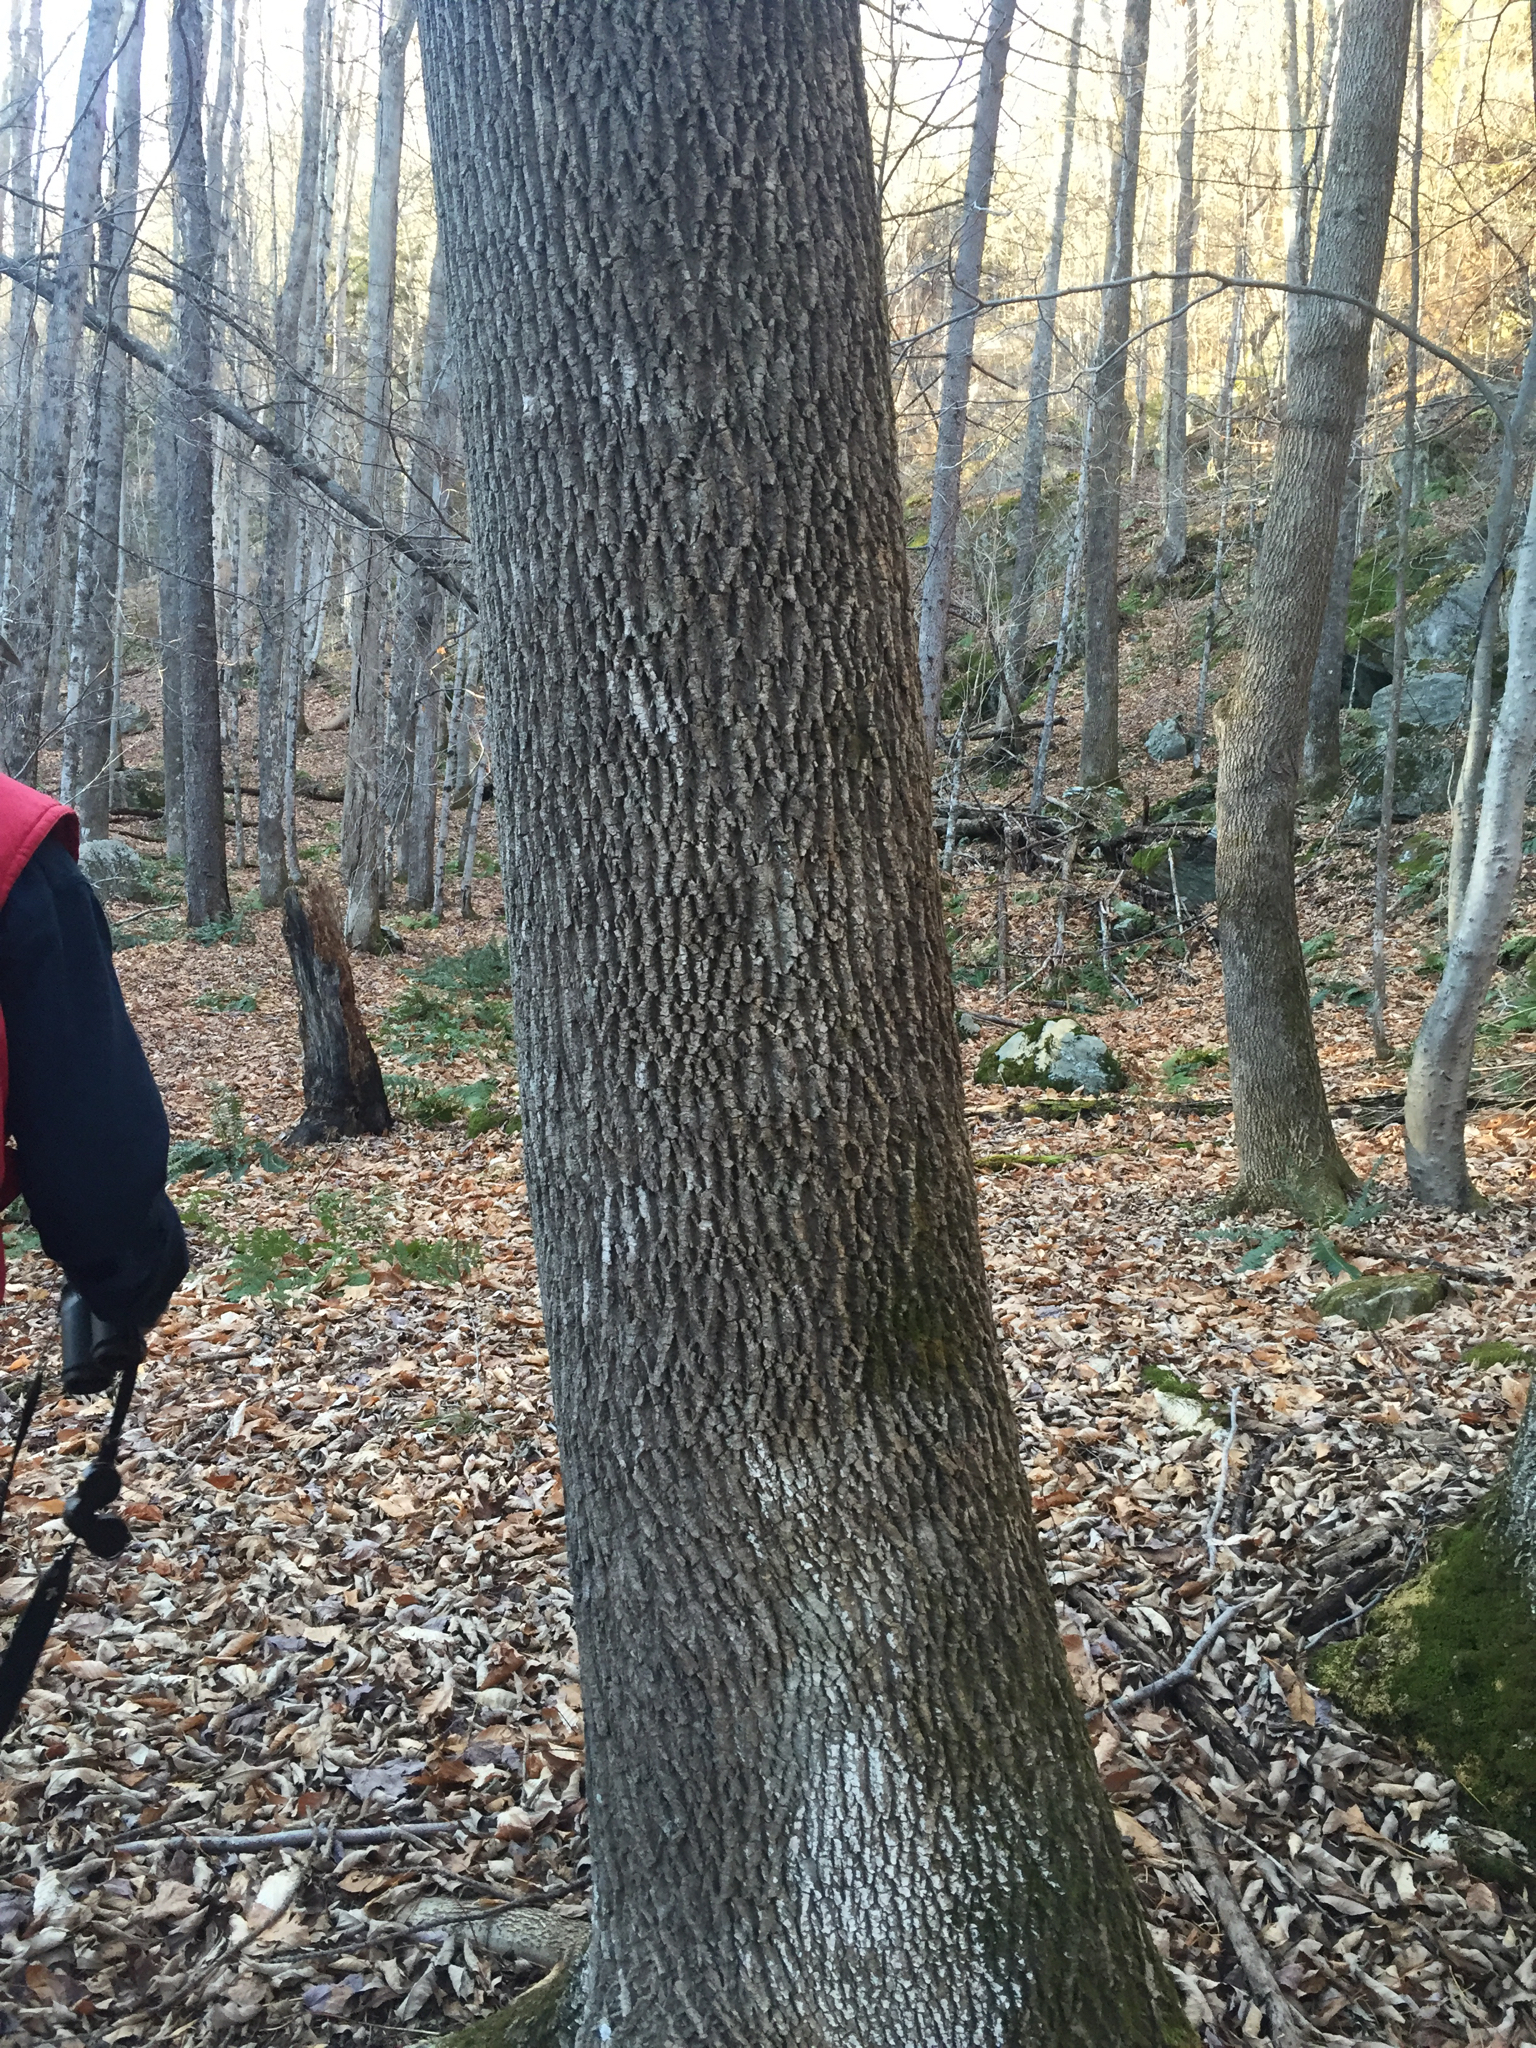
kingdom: Plantae
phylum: Tracheophyta
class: Magnoliopsida
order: Lamiales
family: Oleaceae
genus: Fraxinus
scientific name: Fraxinus americana
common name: White ash
